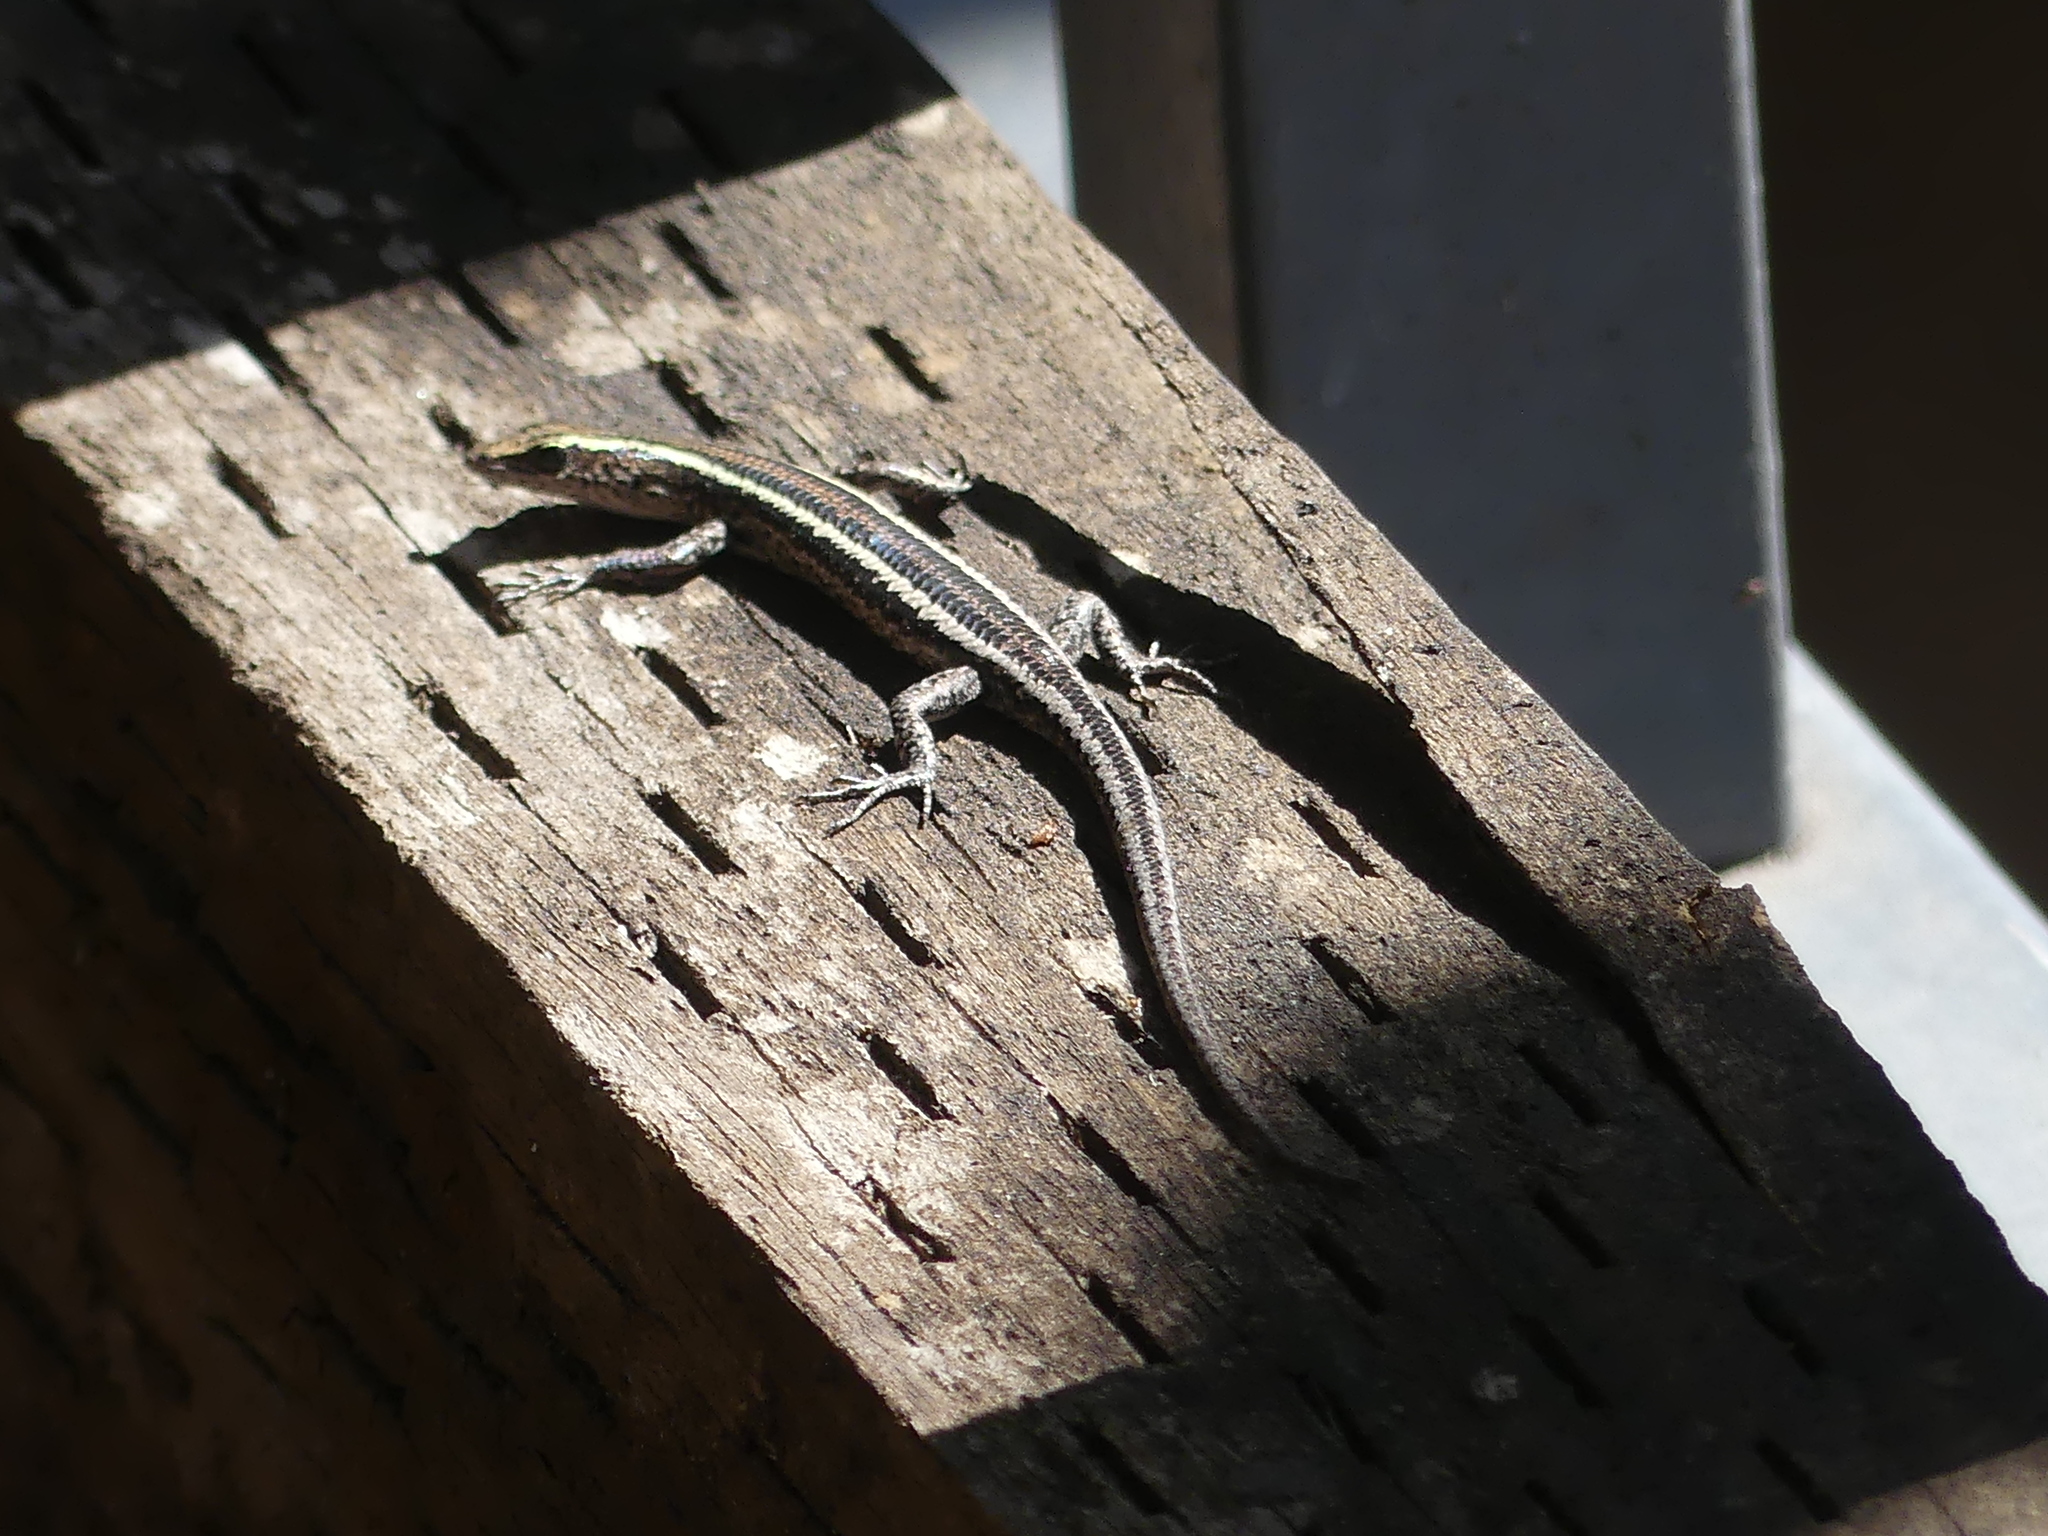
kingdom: Animalia
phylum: Chordata
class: Squamata
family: Scincidae
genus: Cryptoblepharus
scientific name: Cryptoblepharus pulcher
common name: Elegant snake-eyed skink
